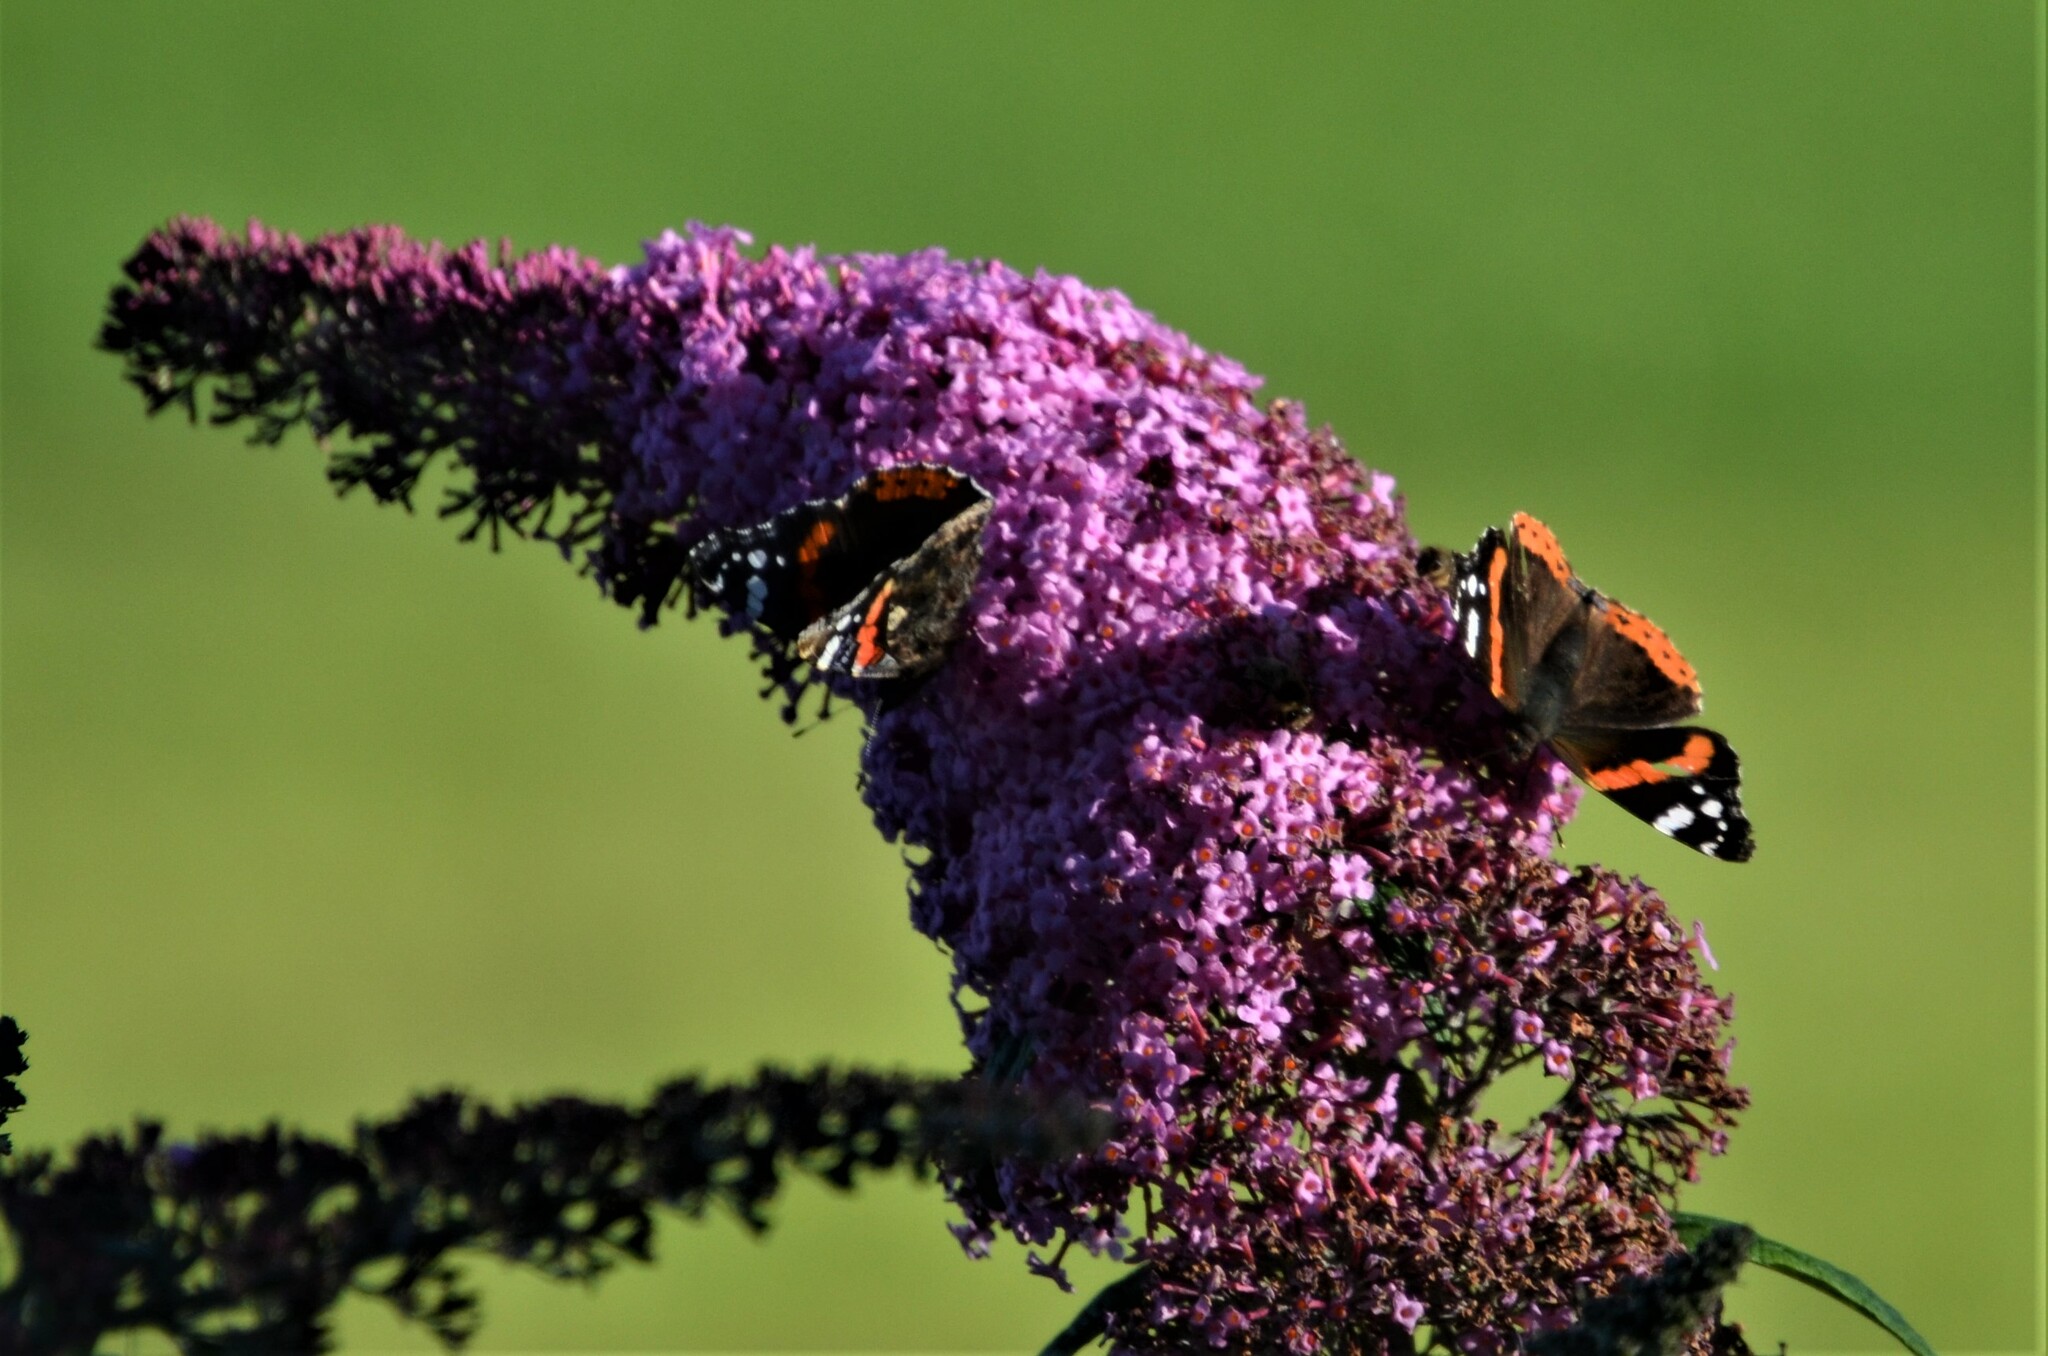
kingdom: Animalia
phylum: Arthropoda
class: Insecta
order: Lepidoptera
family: Nymphalidae
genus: Vanessa
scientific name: Vanessa atalanta
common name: Red admiral
